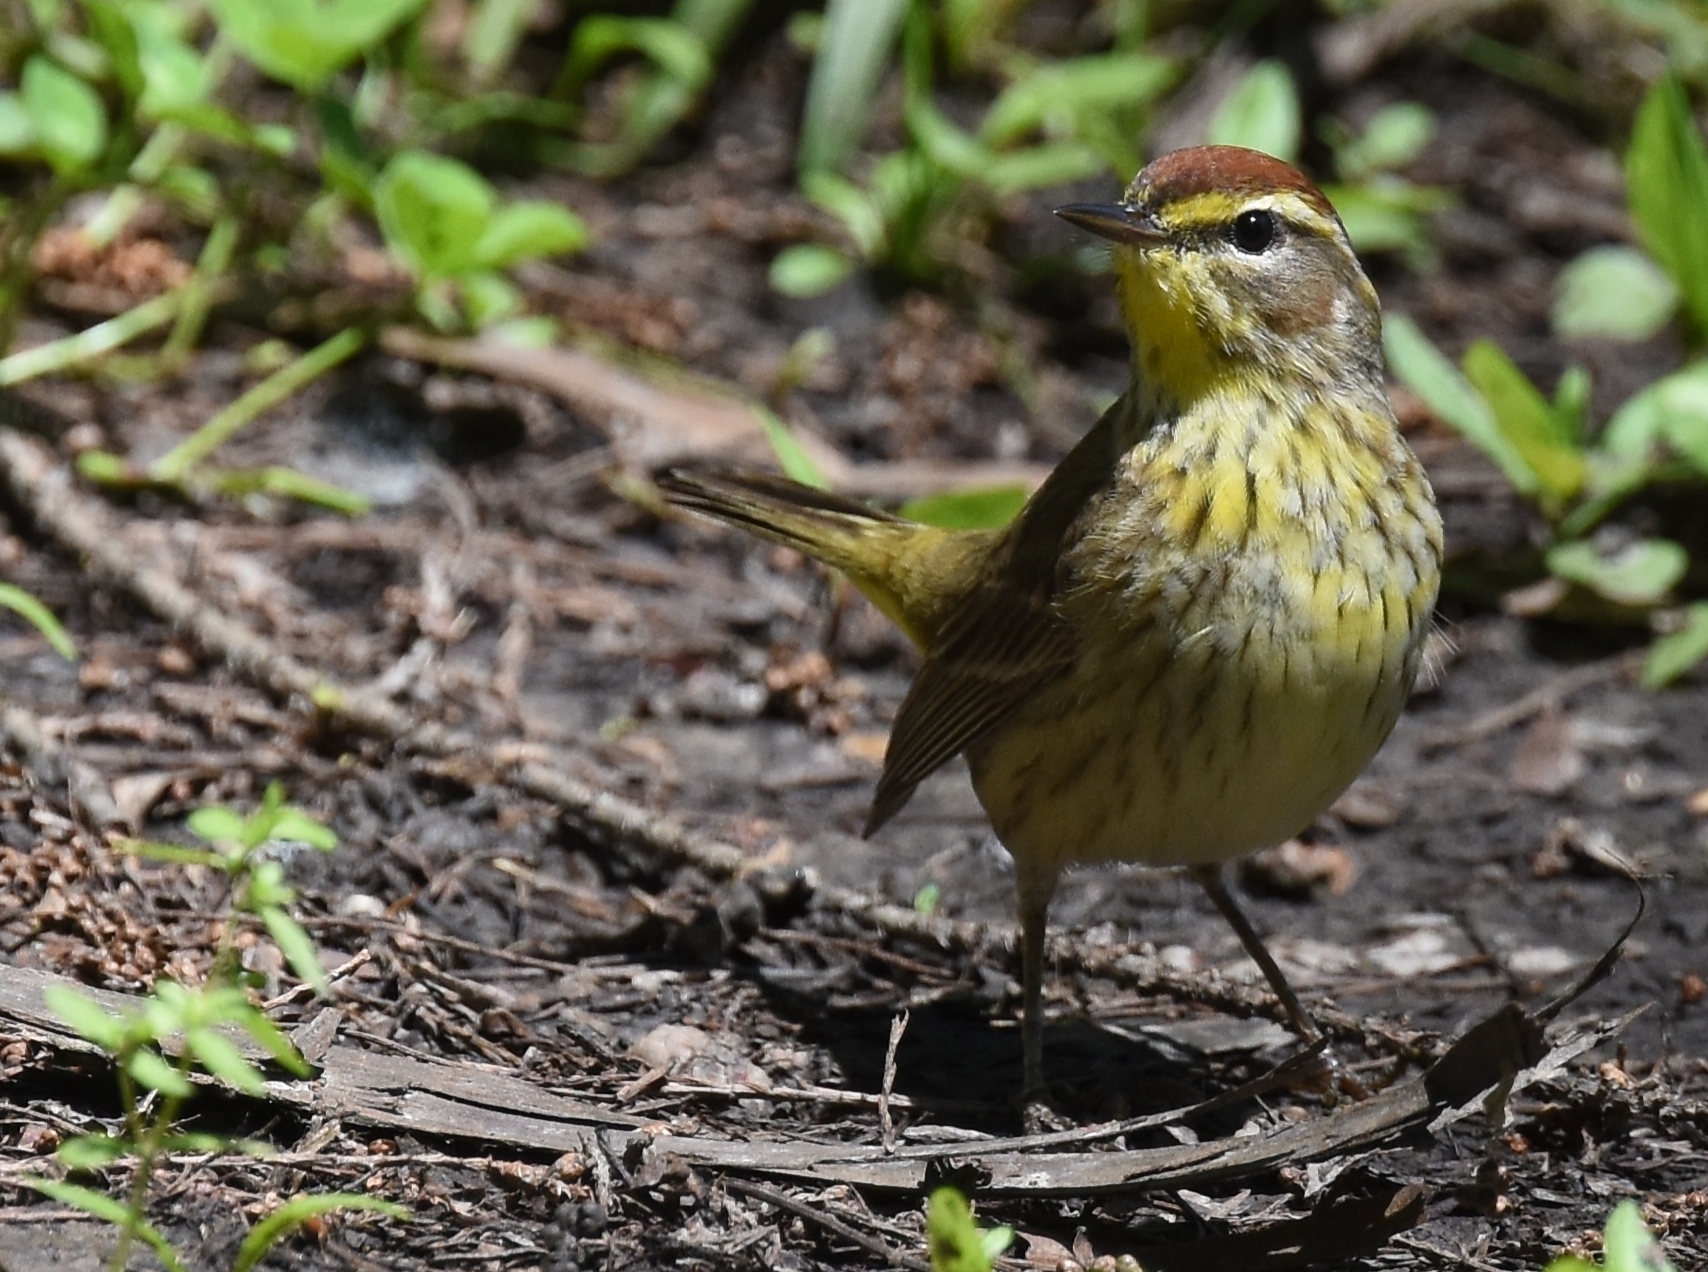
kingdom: Animalia
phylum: Chordata
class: Aves
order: Passeriformes
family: Parulidae
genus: Setophaga
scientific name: Setophaga palmarum
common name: Palm warbler
